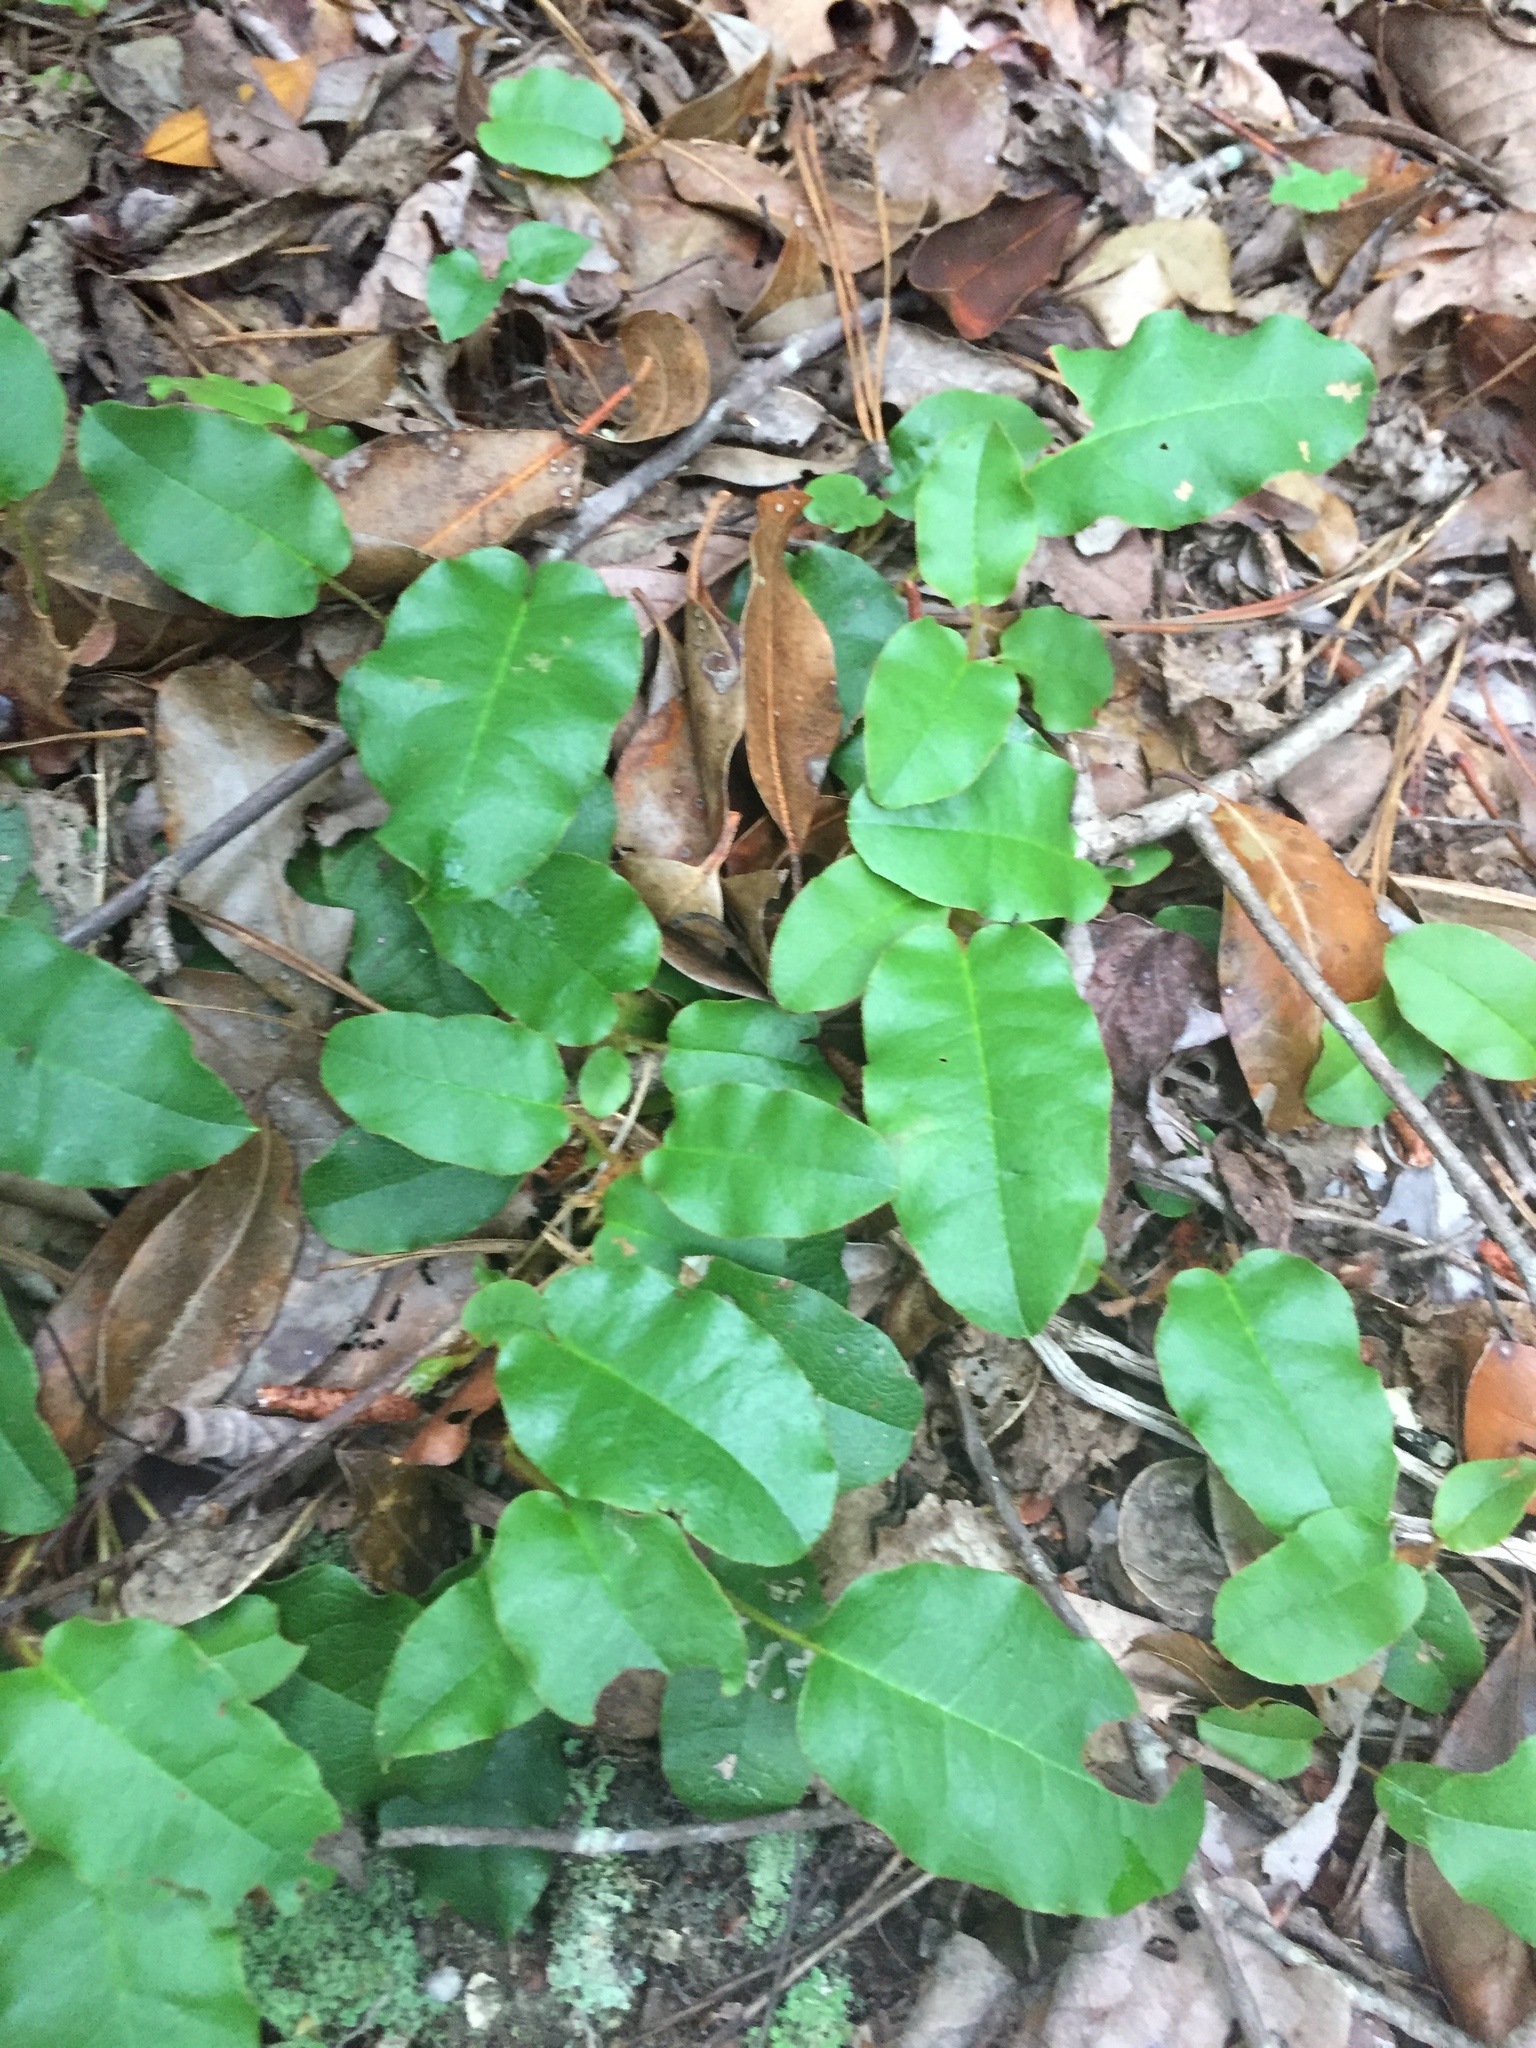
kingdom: Plantae
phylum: Tracheophyta
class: Magnoliopsida
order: Ericales
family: Ericaceae
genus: Epigaea
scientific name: Epigaea repens
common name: Gravelroot
